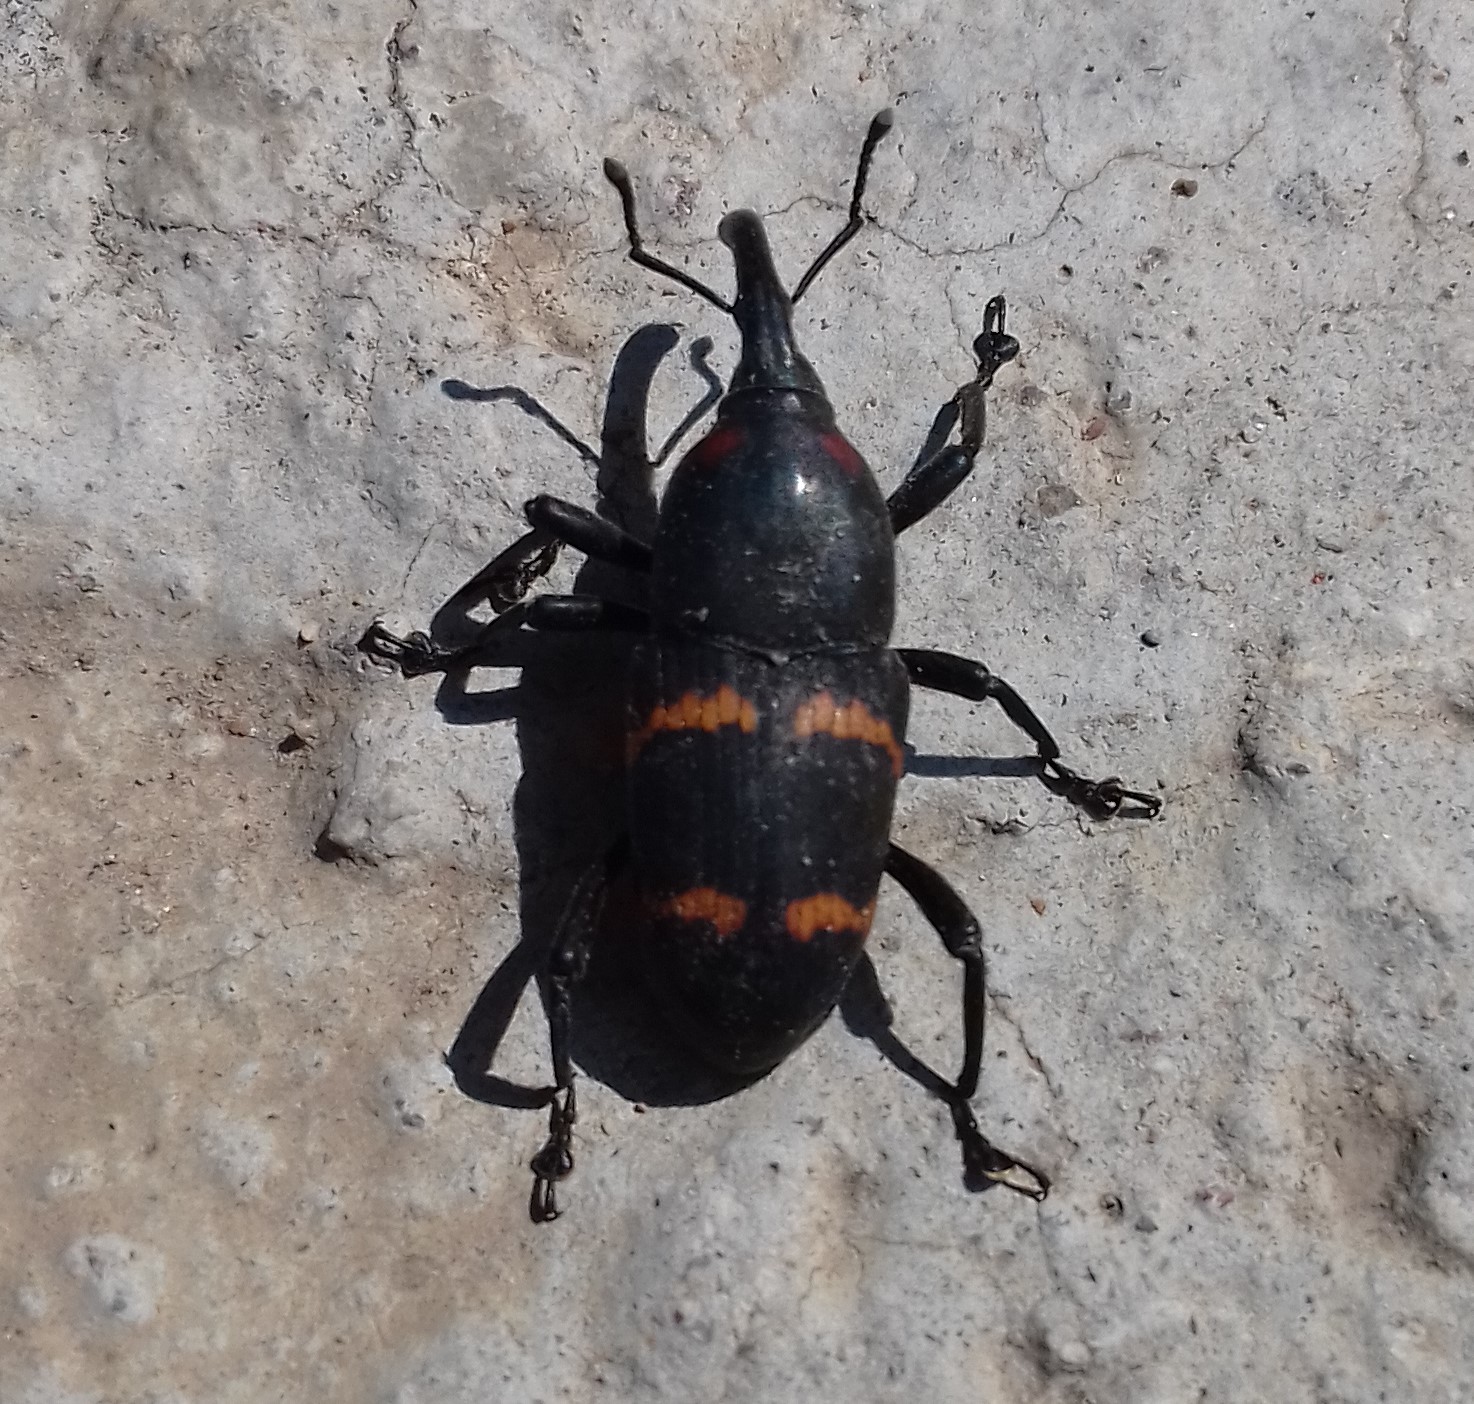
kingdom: Animalia
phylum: Arthropoda
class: Insecta
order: Coleoptera
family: Dryophthoridae
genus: Cactophagus
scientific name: Cactophagus spinolae
